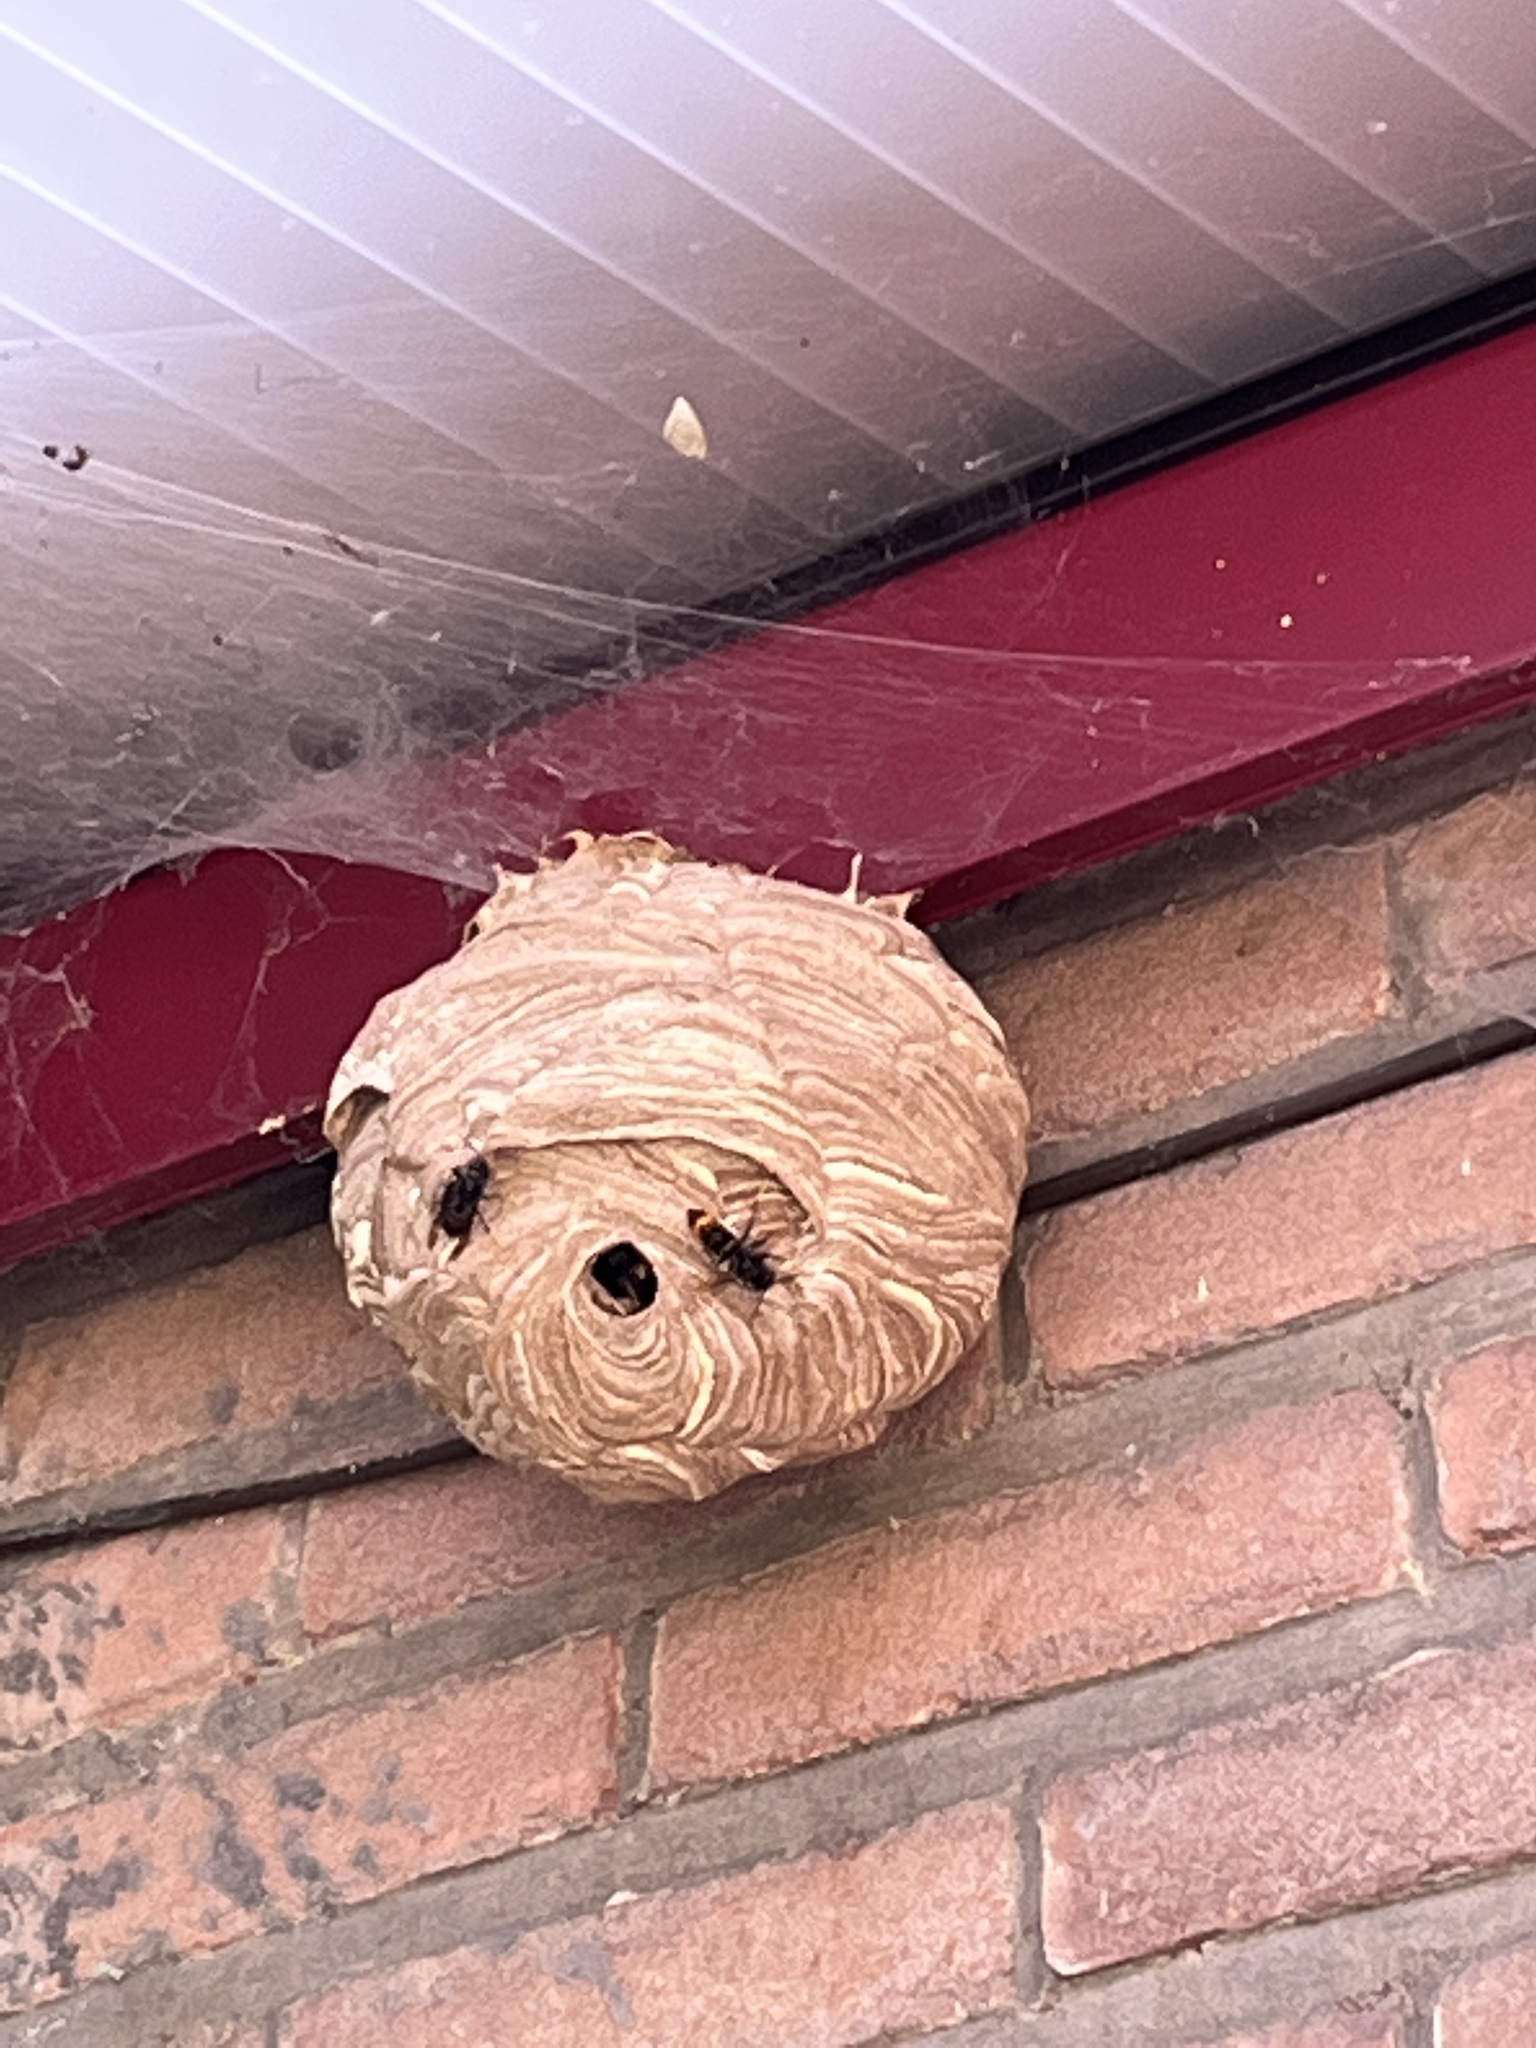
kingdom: Animalia
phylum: Arthropoda
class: Insecta
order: Hymenoptera
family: Vespidae
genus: Vespa
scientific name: Vespa velutina
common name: Asian hornet
